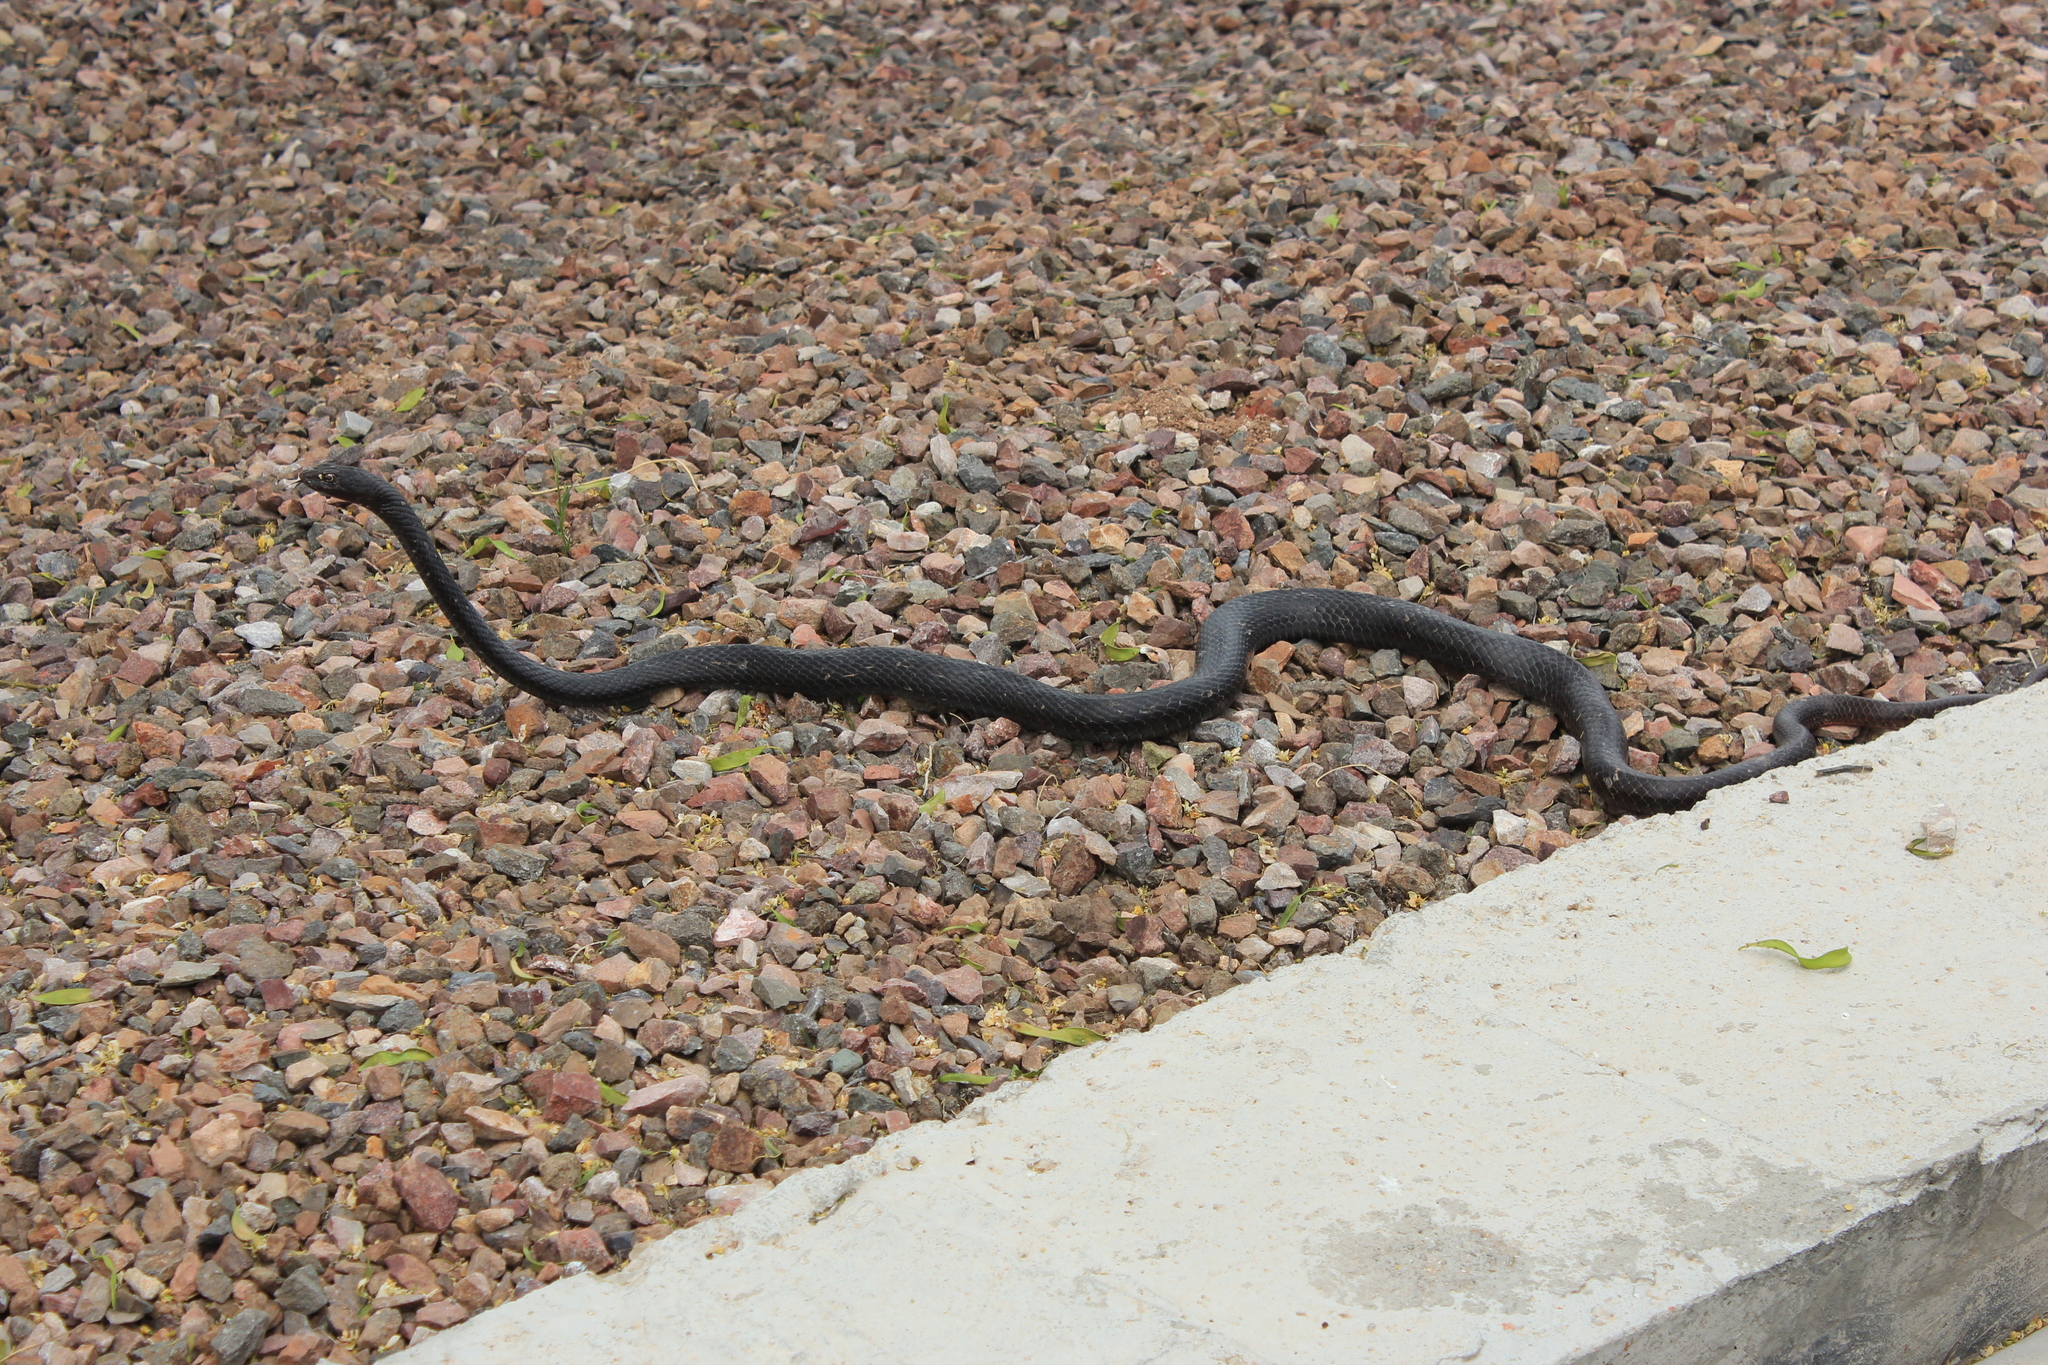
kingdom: Animalia
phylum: Chordata
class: Squamata
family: Colubridae
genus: Masticophis
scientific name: Masticophis flagellum
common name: Coachwhip
